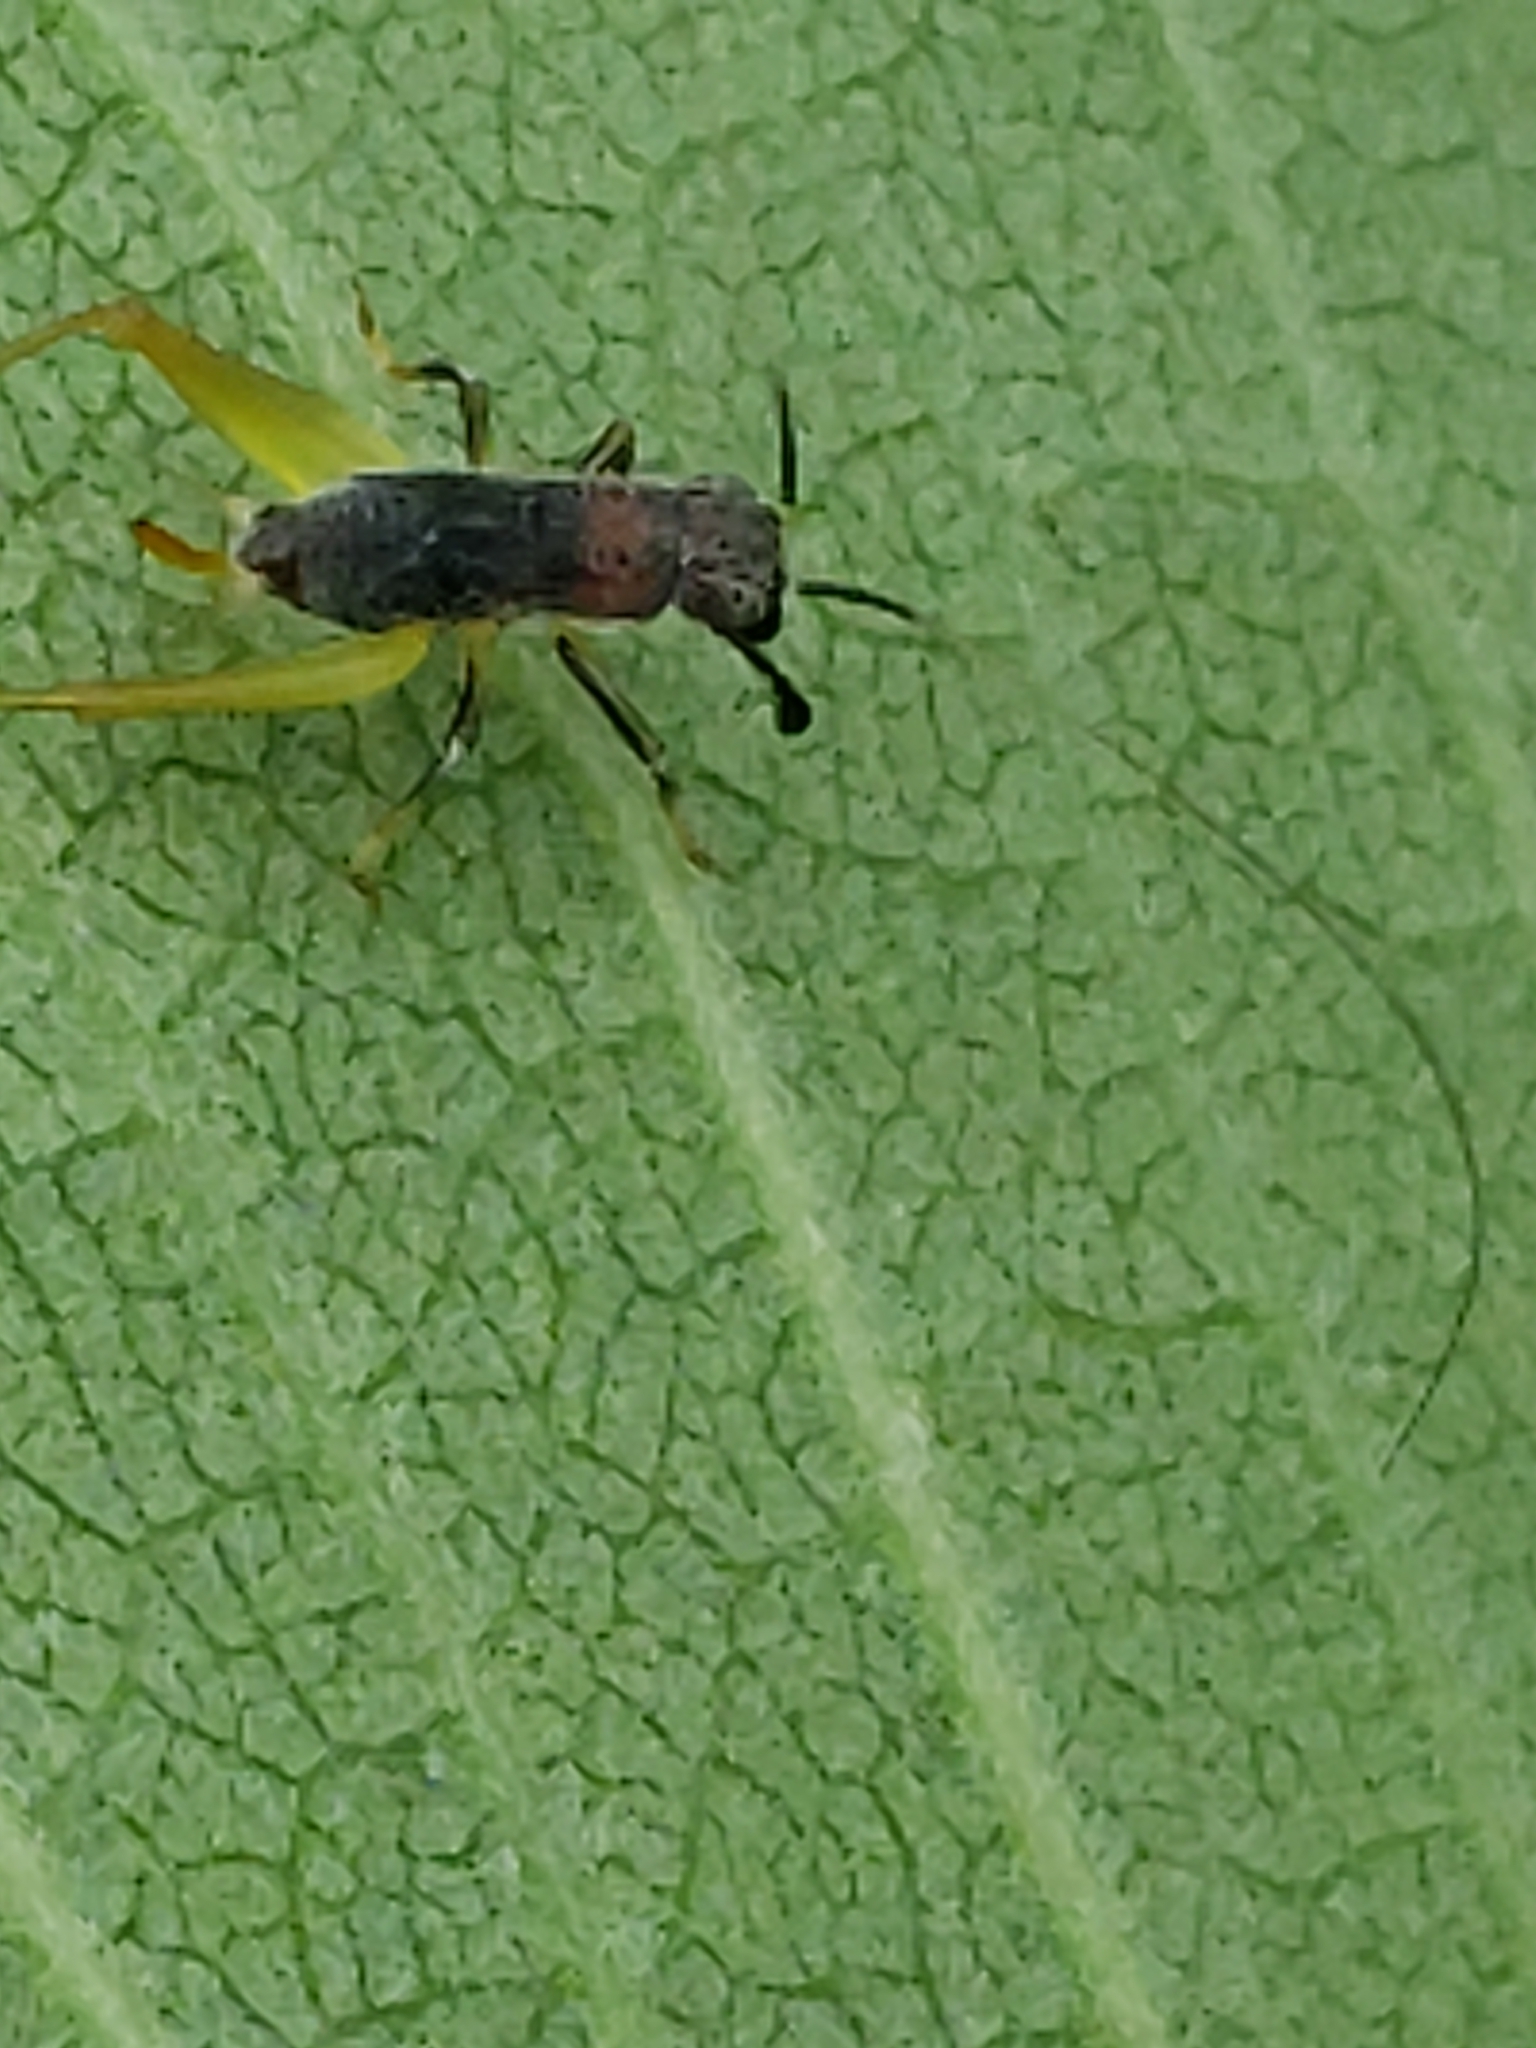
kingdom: Animalia
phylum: Arthropoda
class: Insecta
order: Orthoptera
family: Trigonidiidae
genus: Phyllopalpus
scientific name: Phyllopalpus pulchellus
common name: Handsome trig
